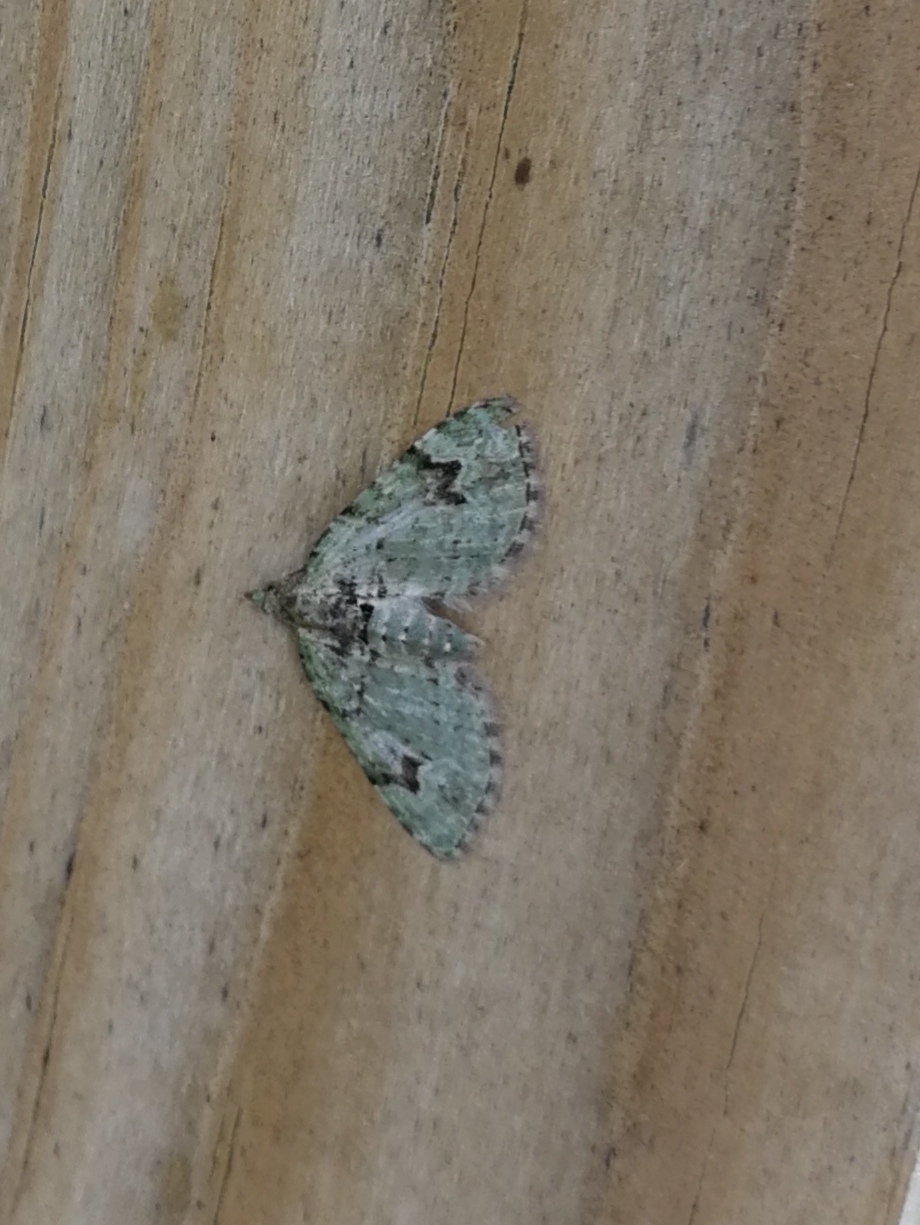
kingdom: Animalia
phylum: Arthropoda
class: Insecta
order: Lepidoptera
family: Geometridae
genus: Chloroclystis
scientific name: Chloroclystis v-ata
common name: V-pug
